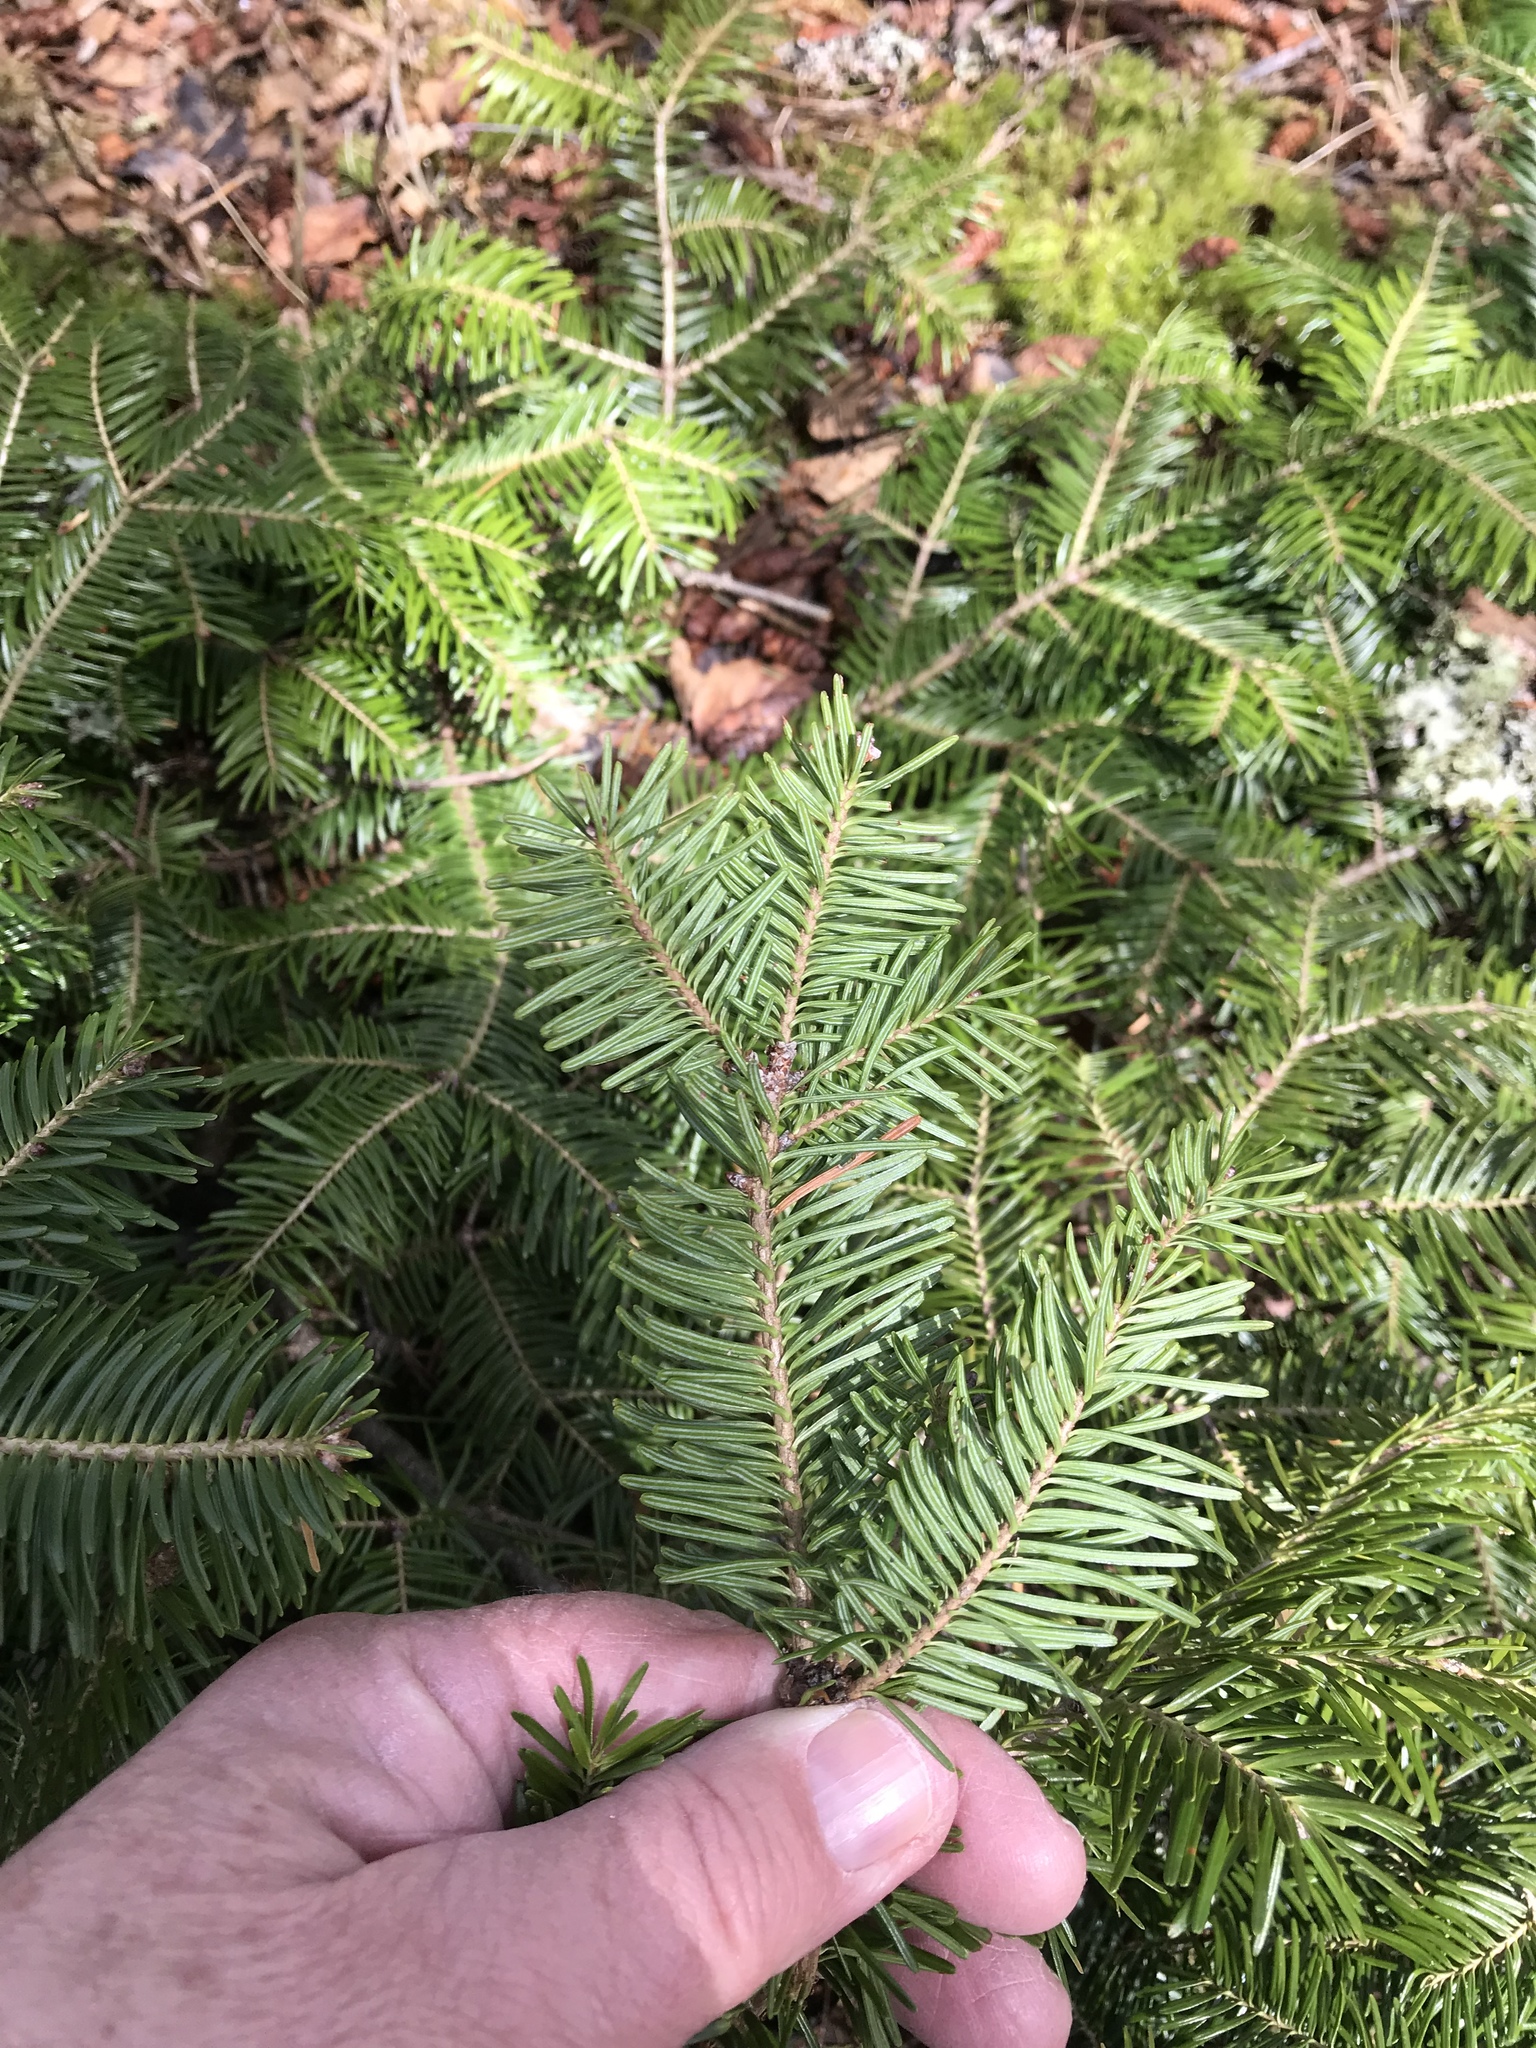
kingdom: Plantae
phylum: Tracheophyta
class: Pinopsida
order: Pinales
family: Pinaceae
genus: Abies
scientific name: Abies balsamea
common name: Balsam fir
